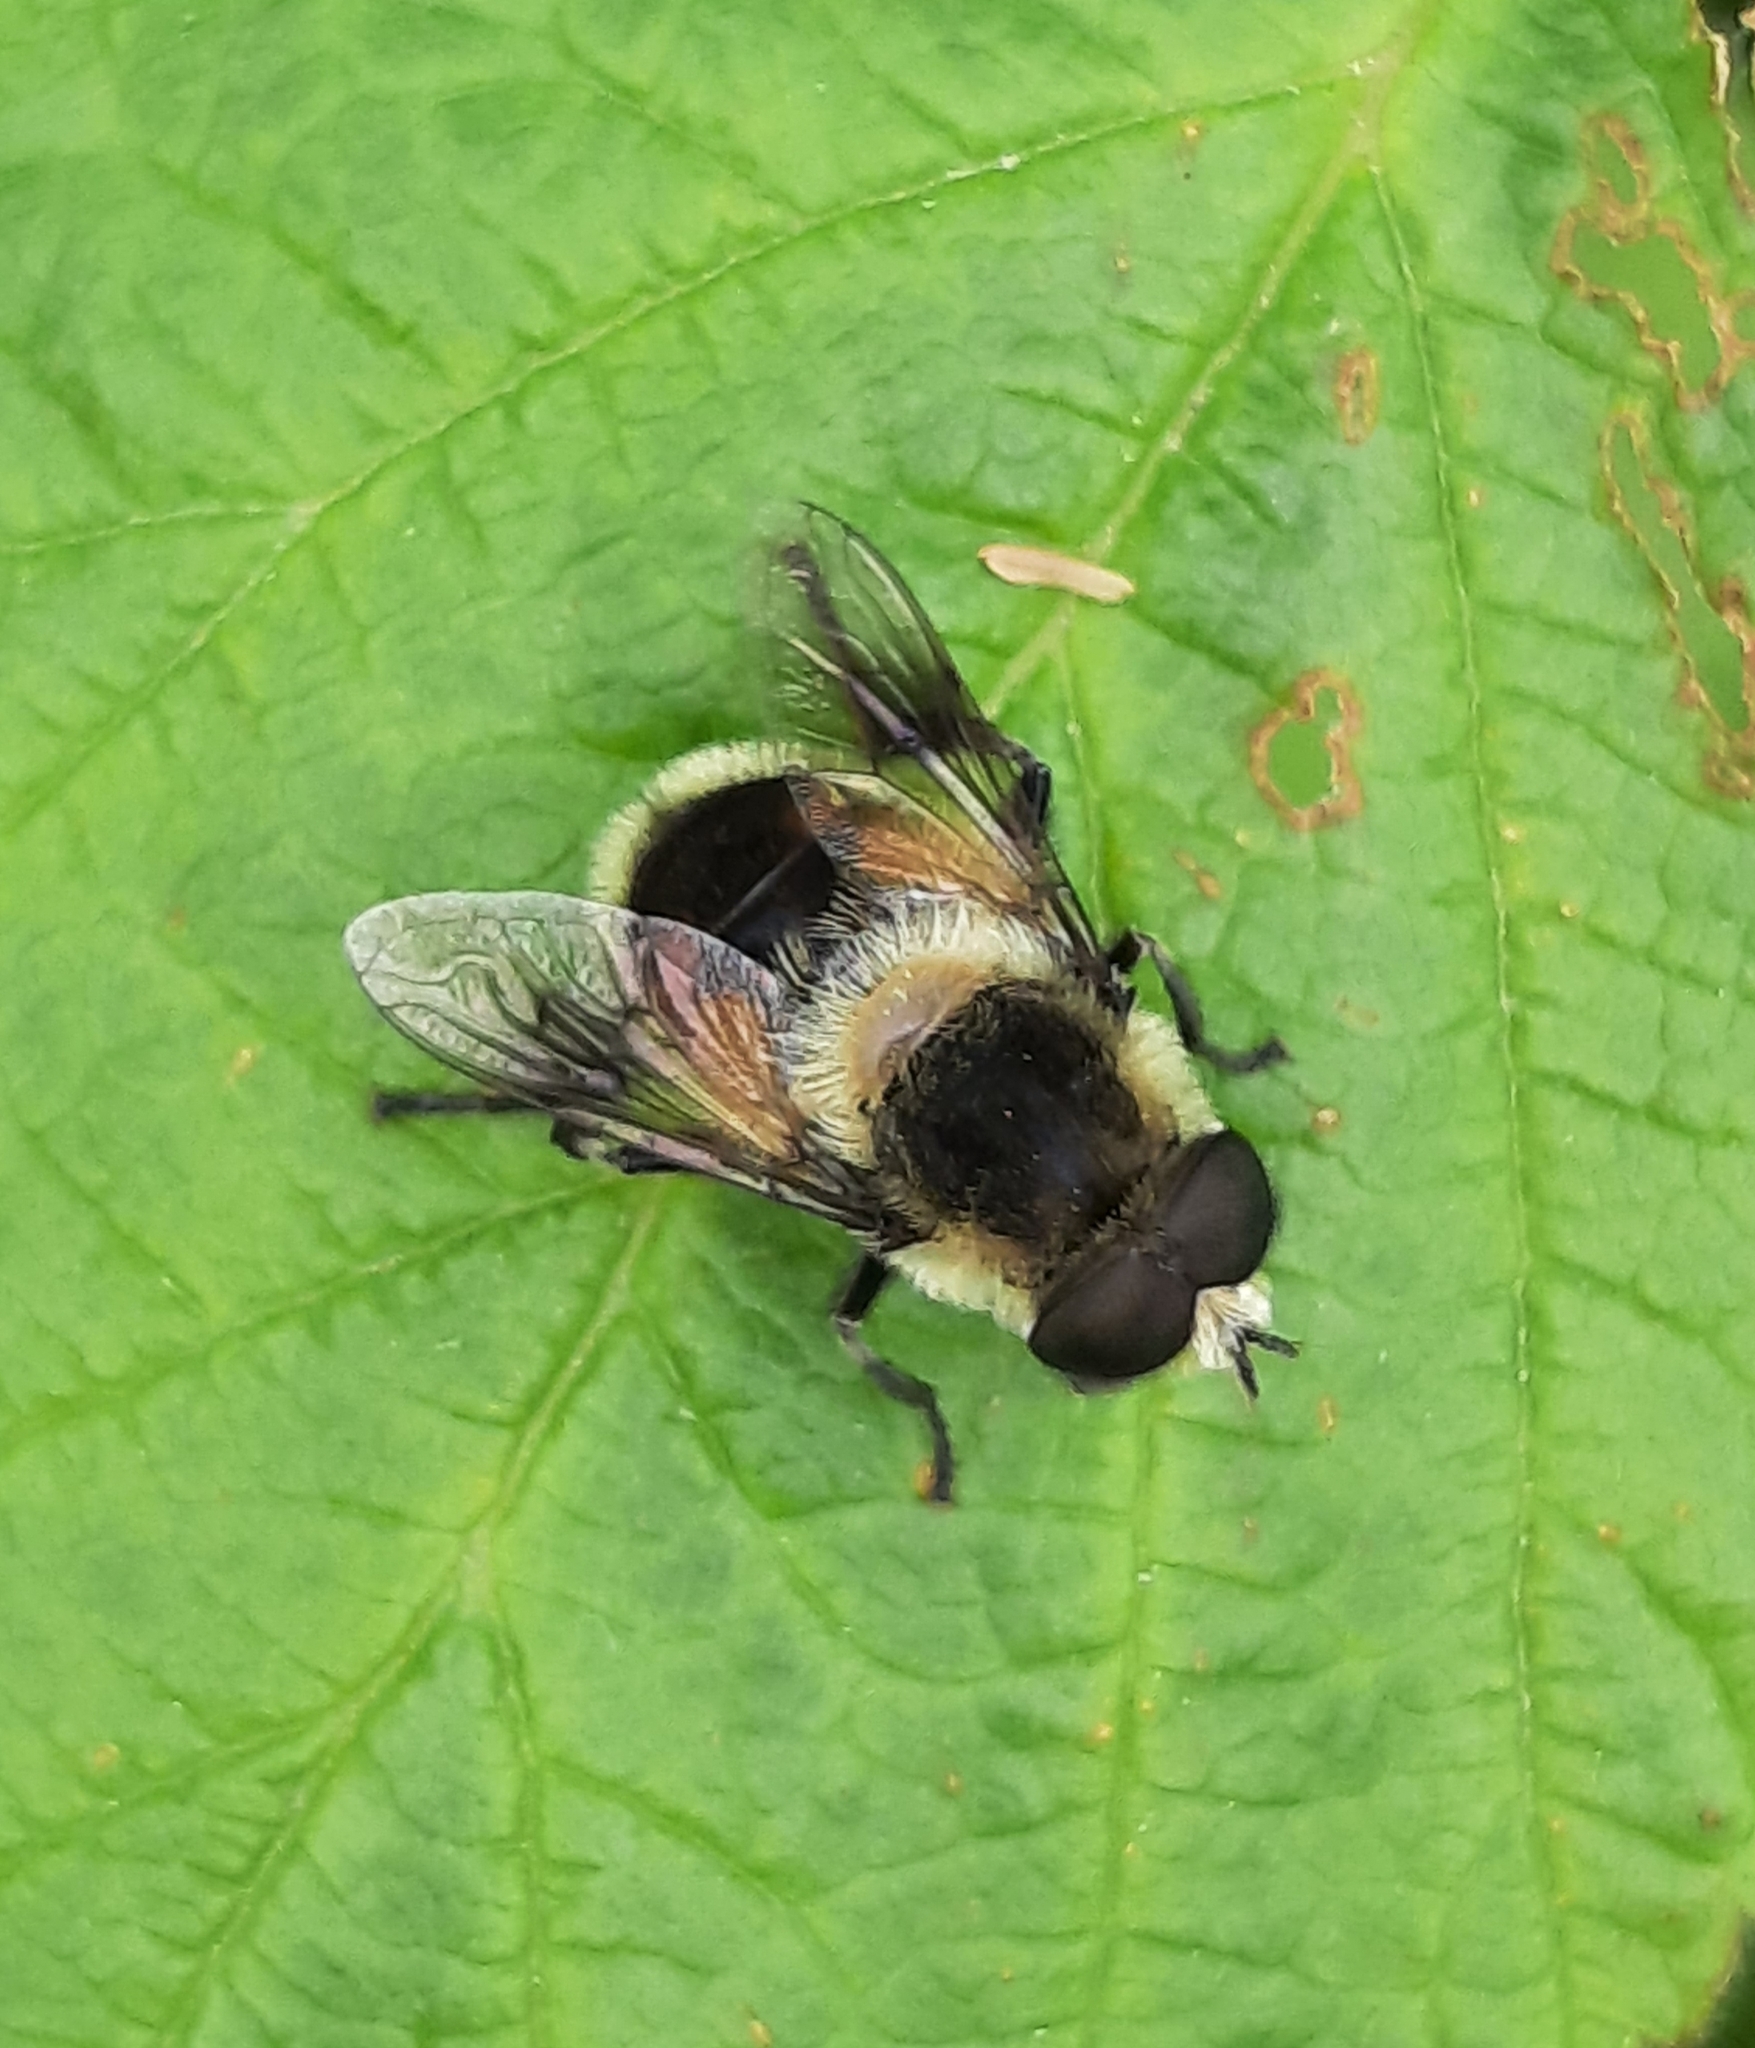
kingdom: Animalia
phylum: Arthropoda
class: Insecta
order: Diptera
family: Syrphidae
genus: Eristalis
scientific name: Eristalis anthophorina
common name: Orange-spotted drone fly
